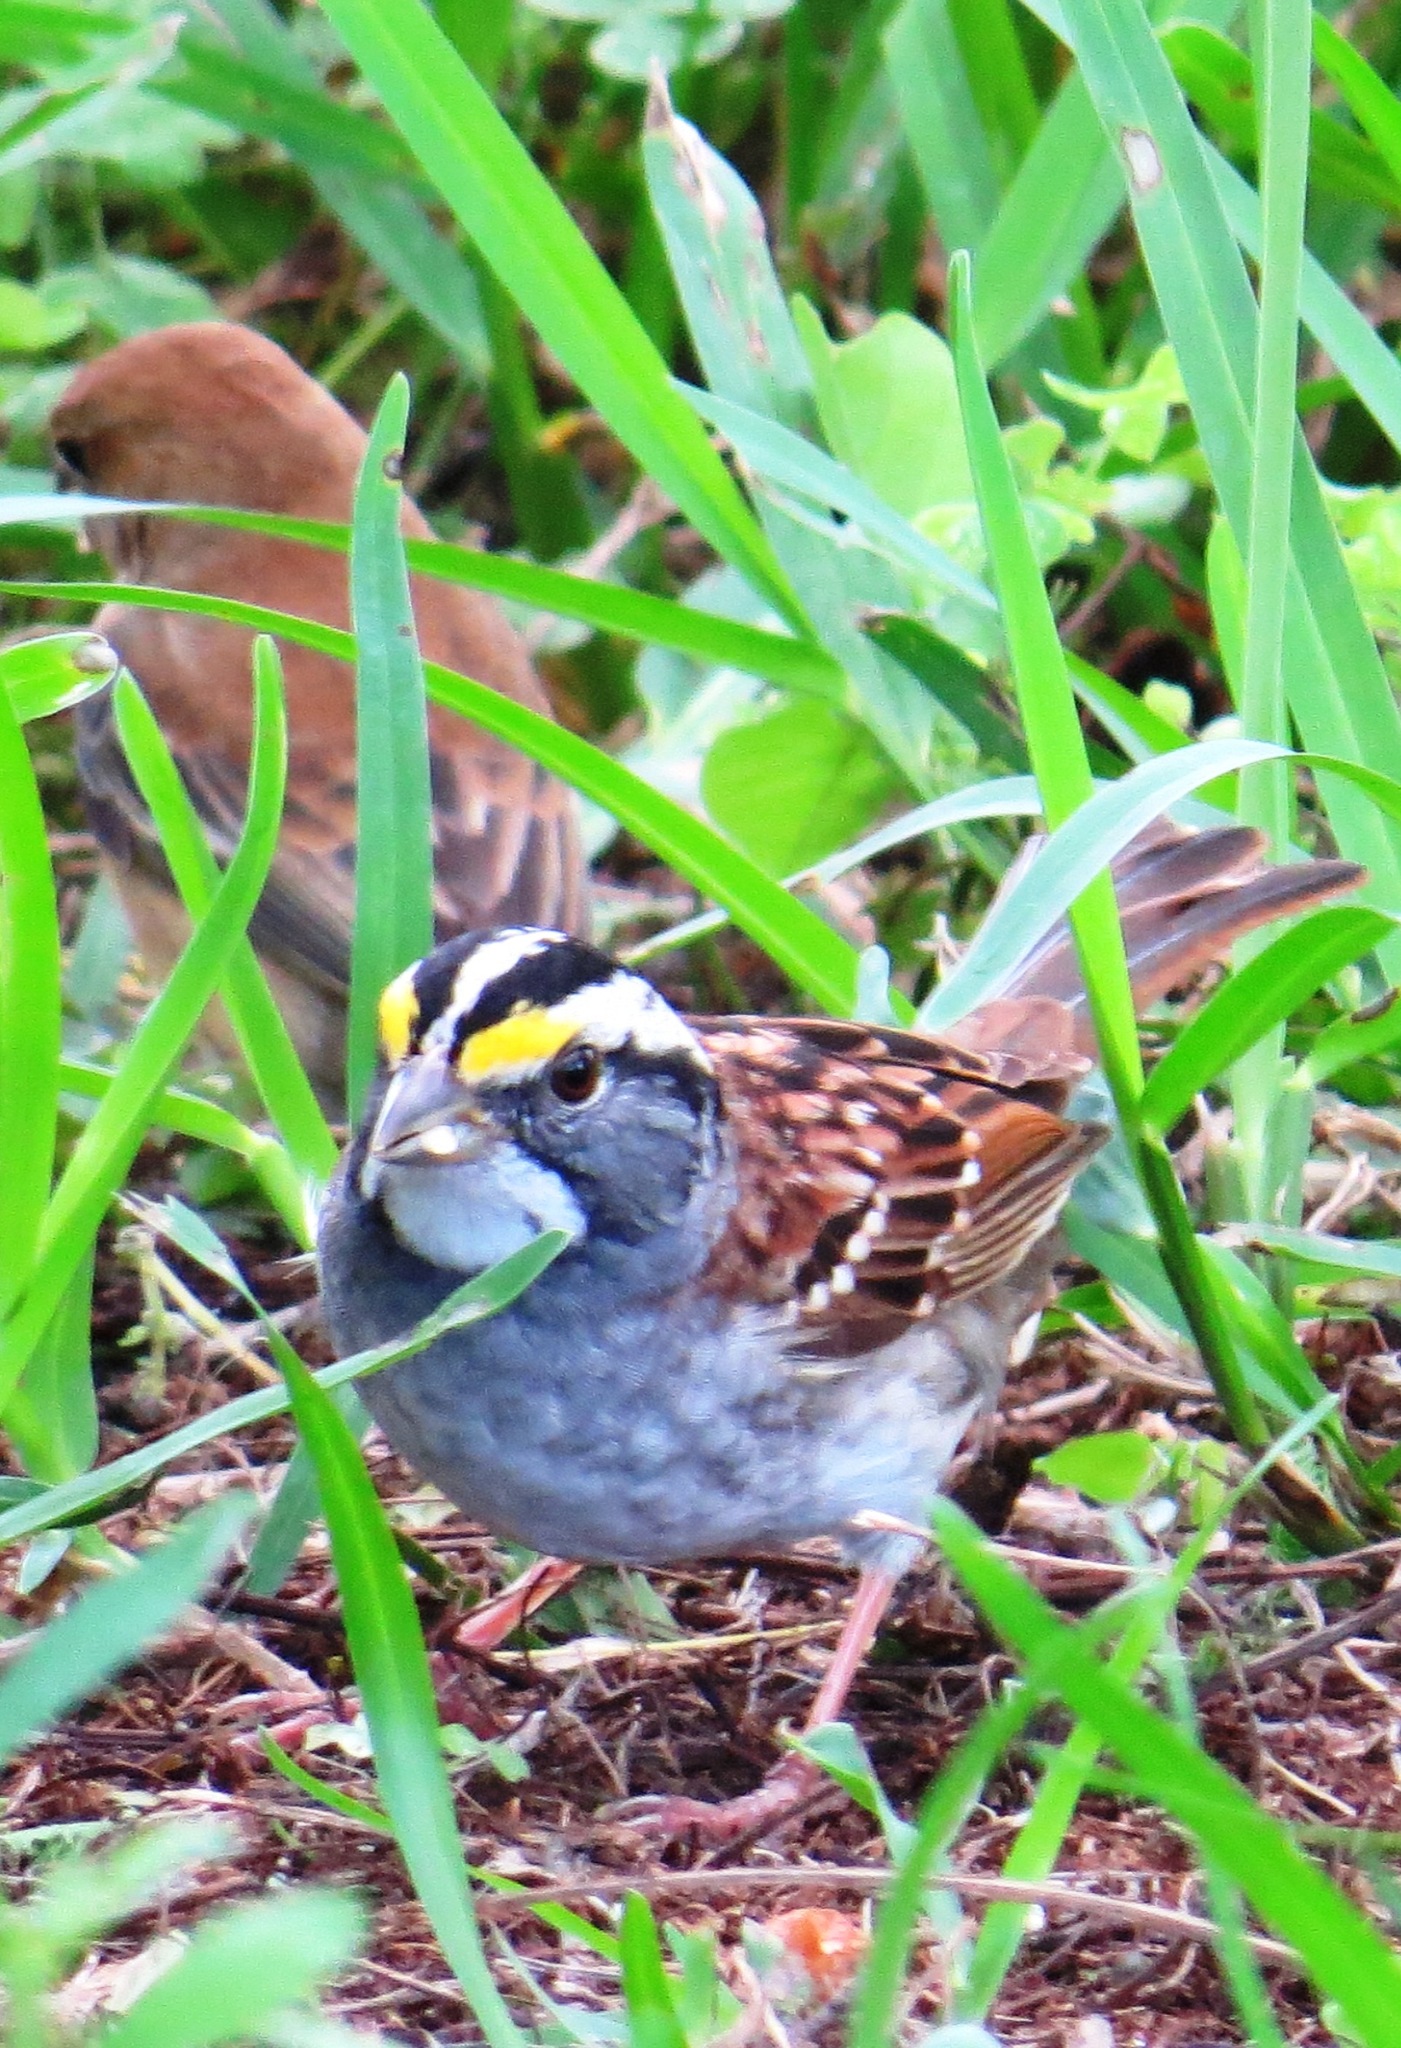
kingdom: Animalia
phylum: Chordata
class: Aves
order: Passeriformes
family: Passerellidae
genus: Zonotrichia
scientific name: Zonotrichia albicollis
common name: White-throated sparrow
